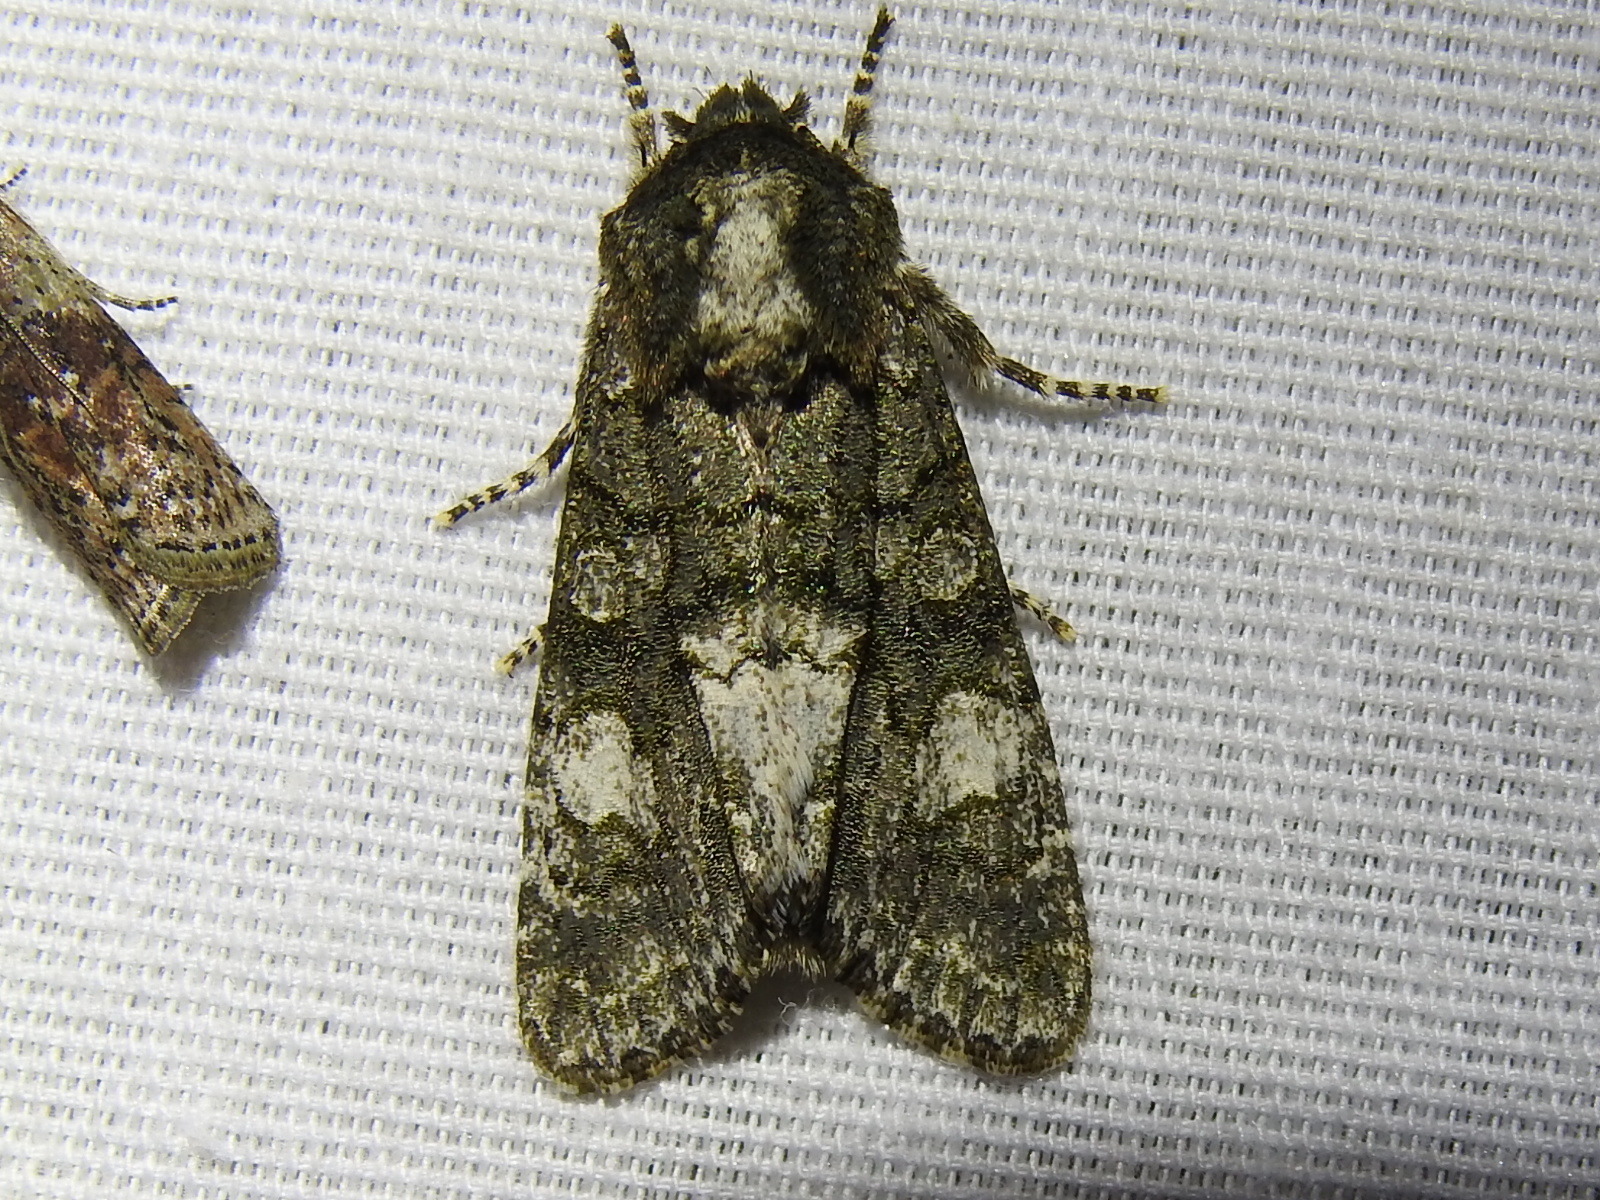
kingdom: Animalia
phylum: Arthropoda
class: Insecta
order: Lepidoptera
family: Noctuidae
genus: Psaphida
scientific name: Psaphida grotei
